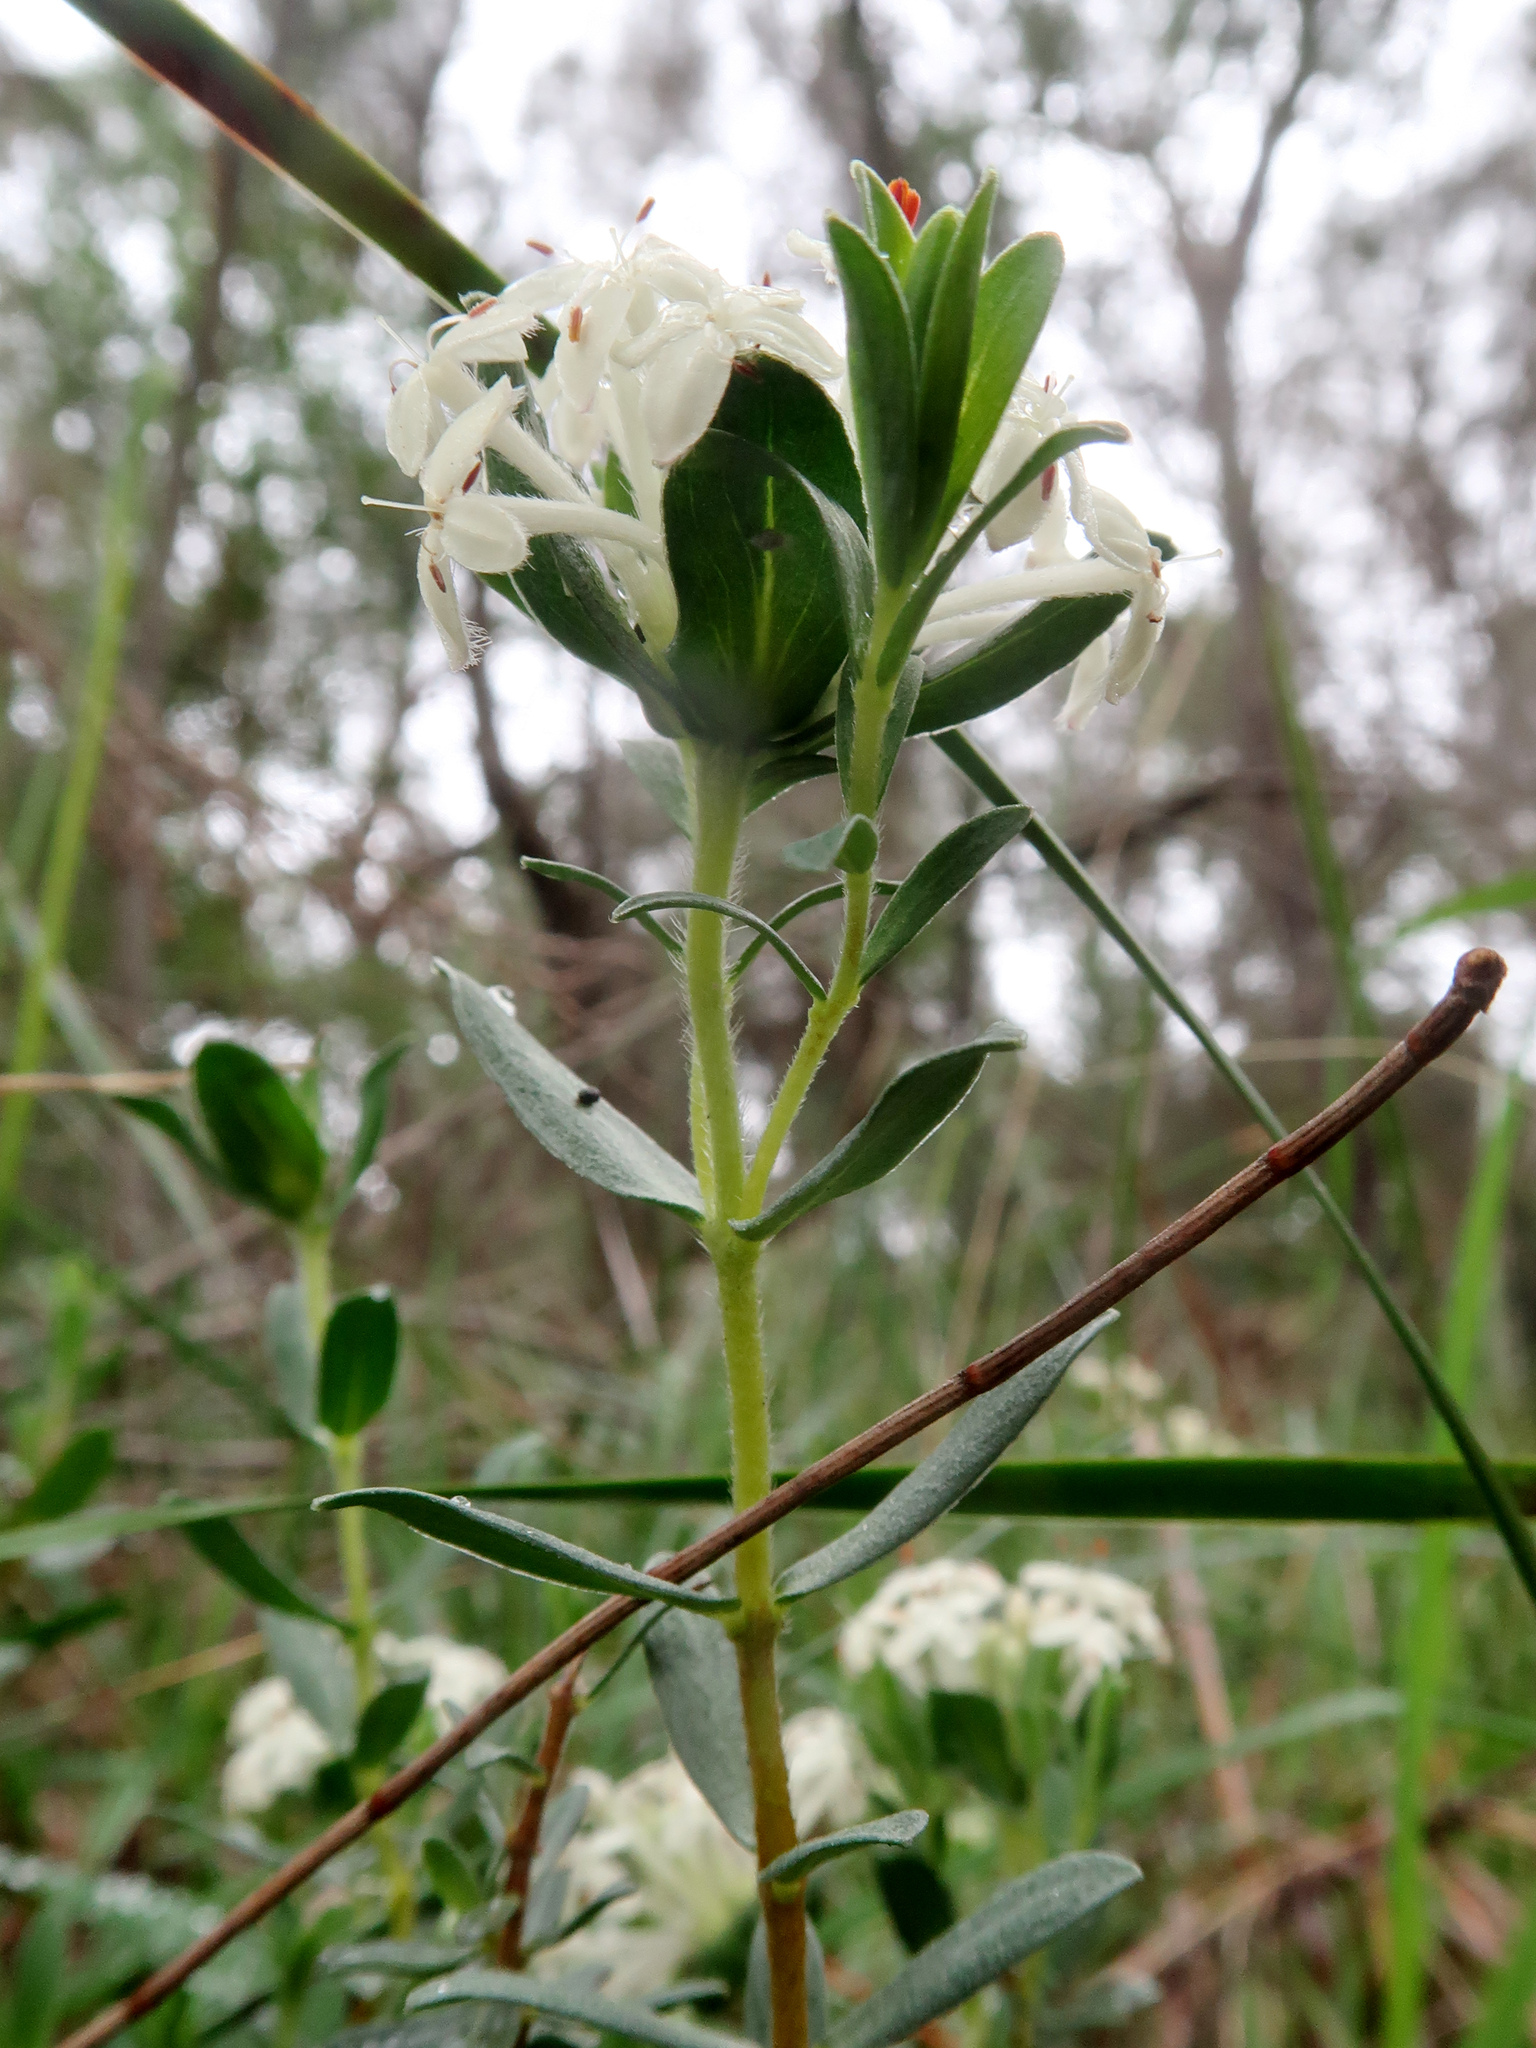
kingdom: Plantae
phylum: Tracheophyta
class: Magnoliopsida
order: Malvales
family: Thymelaeaceae
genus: Pimelea
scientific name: Pimelea humilis
